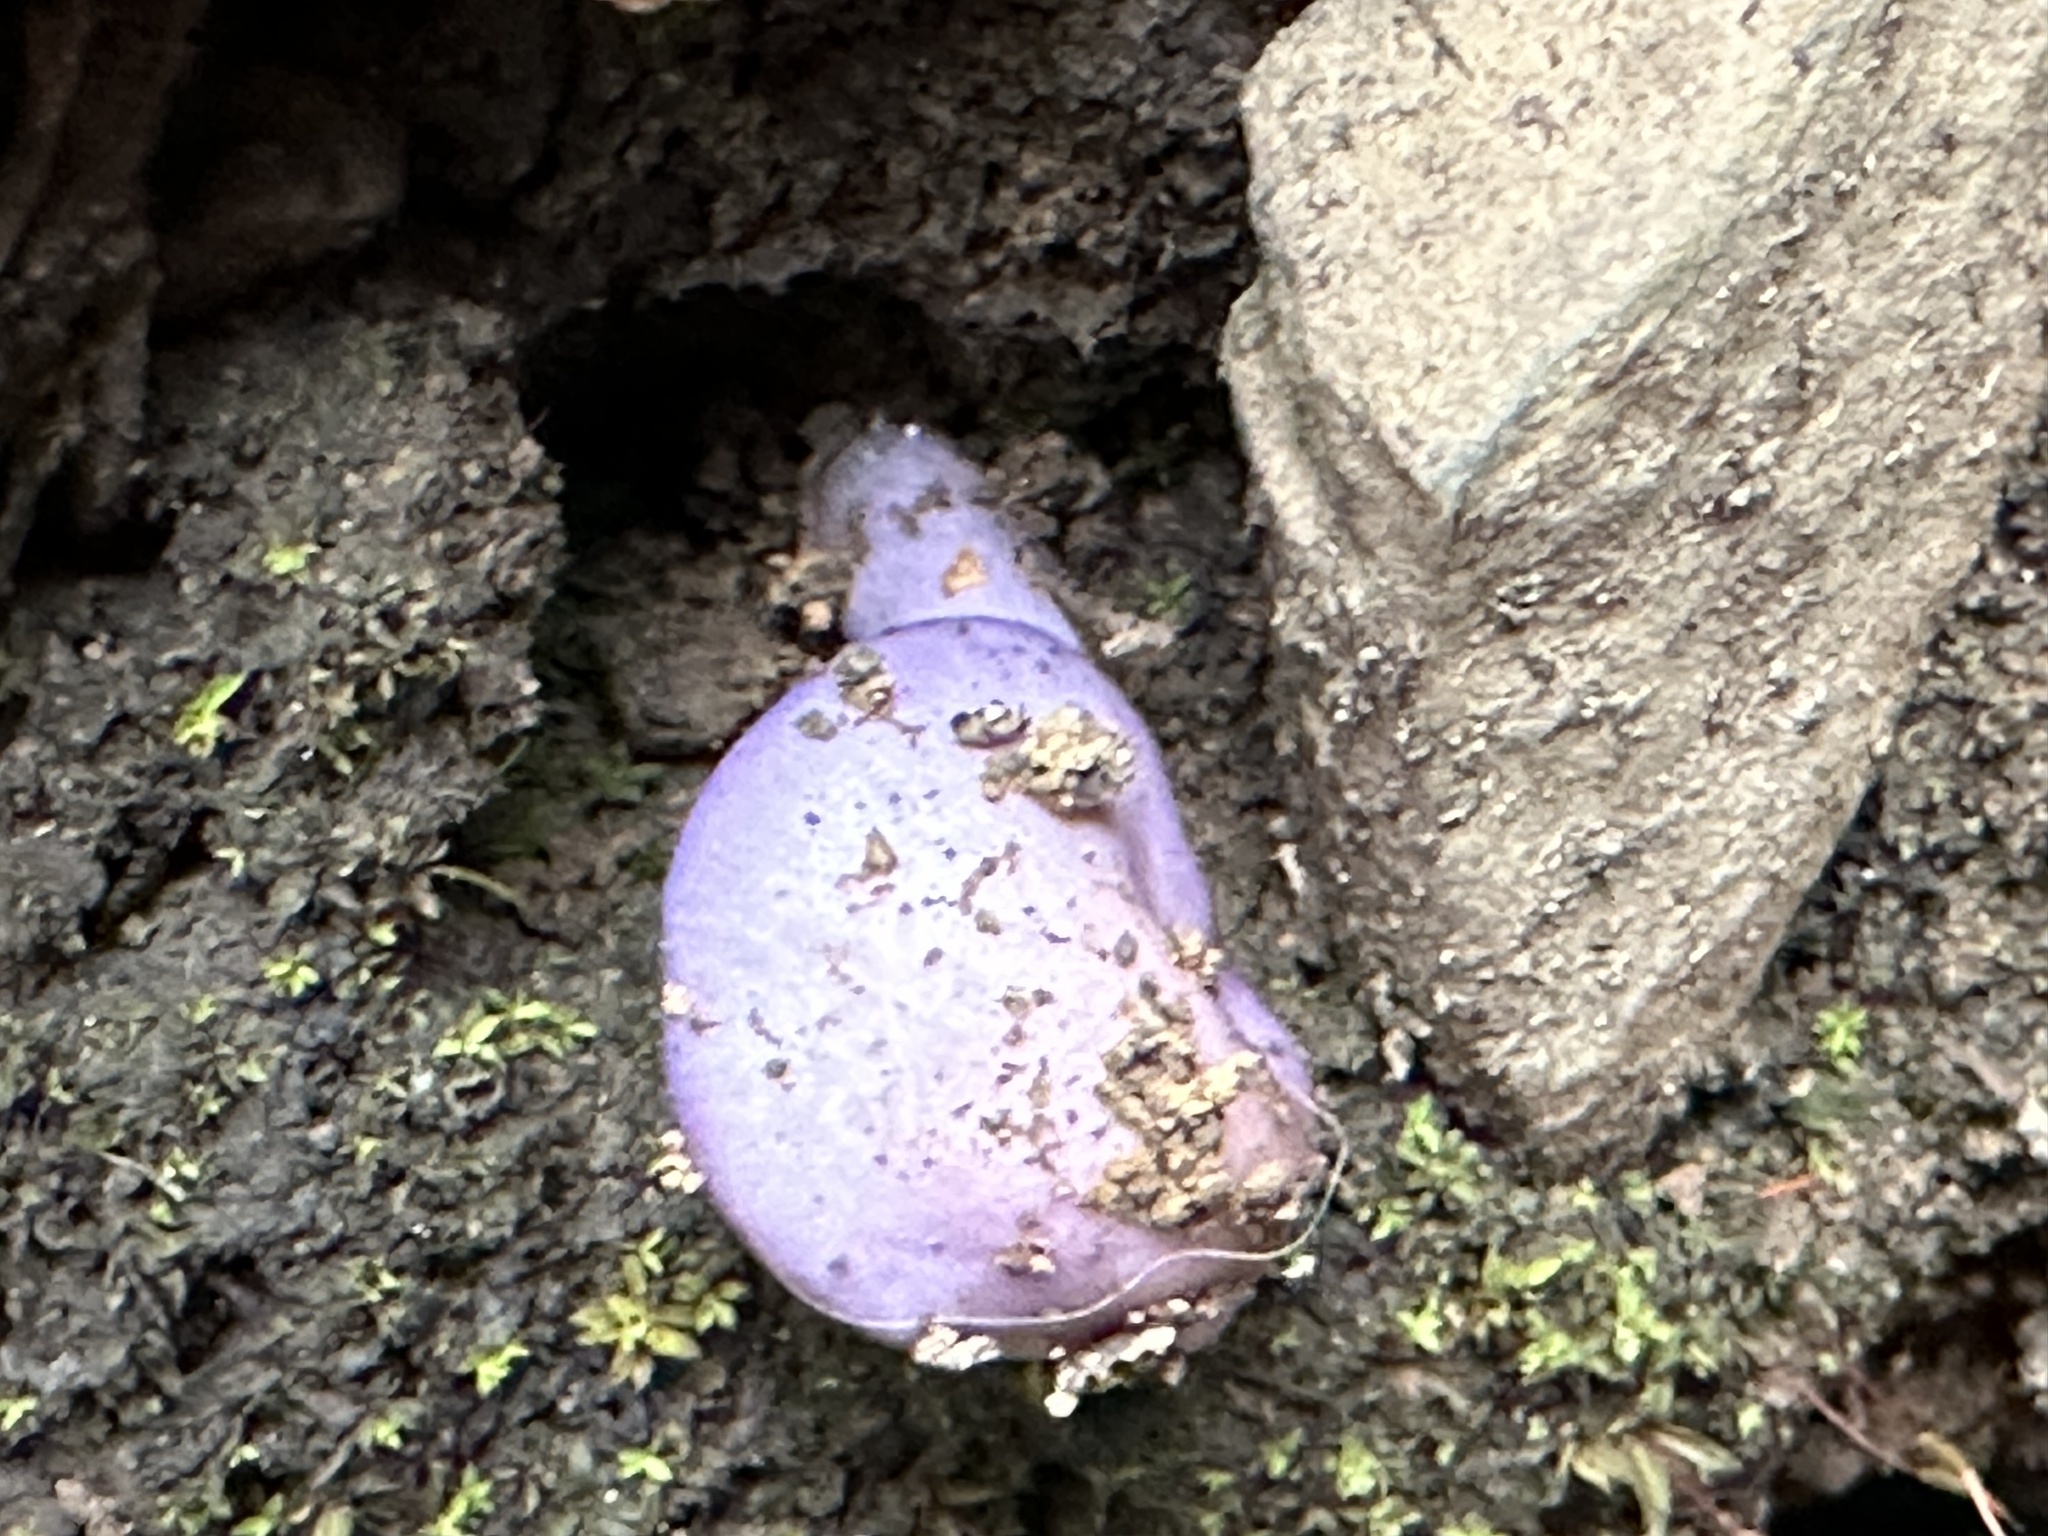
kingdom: Fungi
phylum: Basidiomycota
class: Agaricomycetes
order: Agaricales
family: Cortinariaceae
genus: Cortinarius
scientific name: Cortinarius magellanicus
